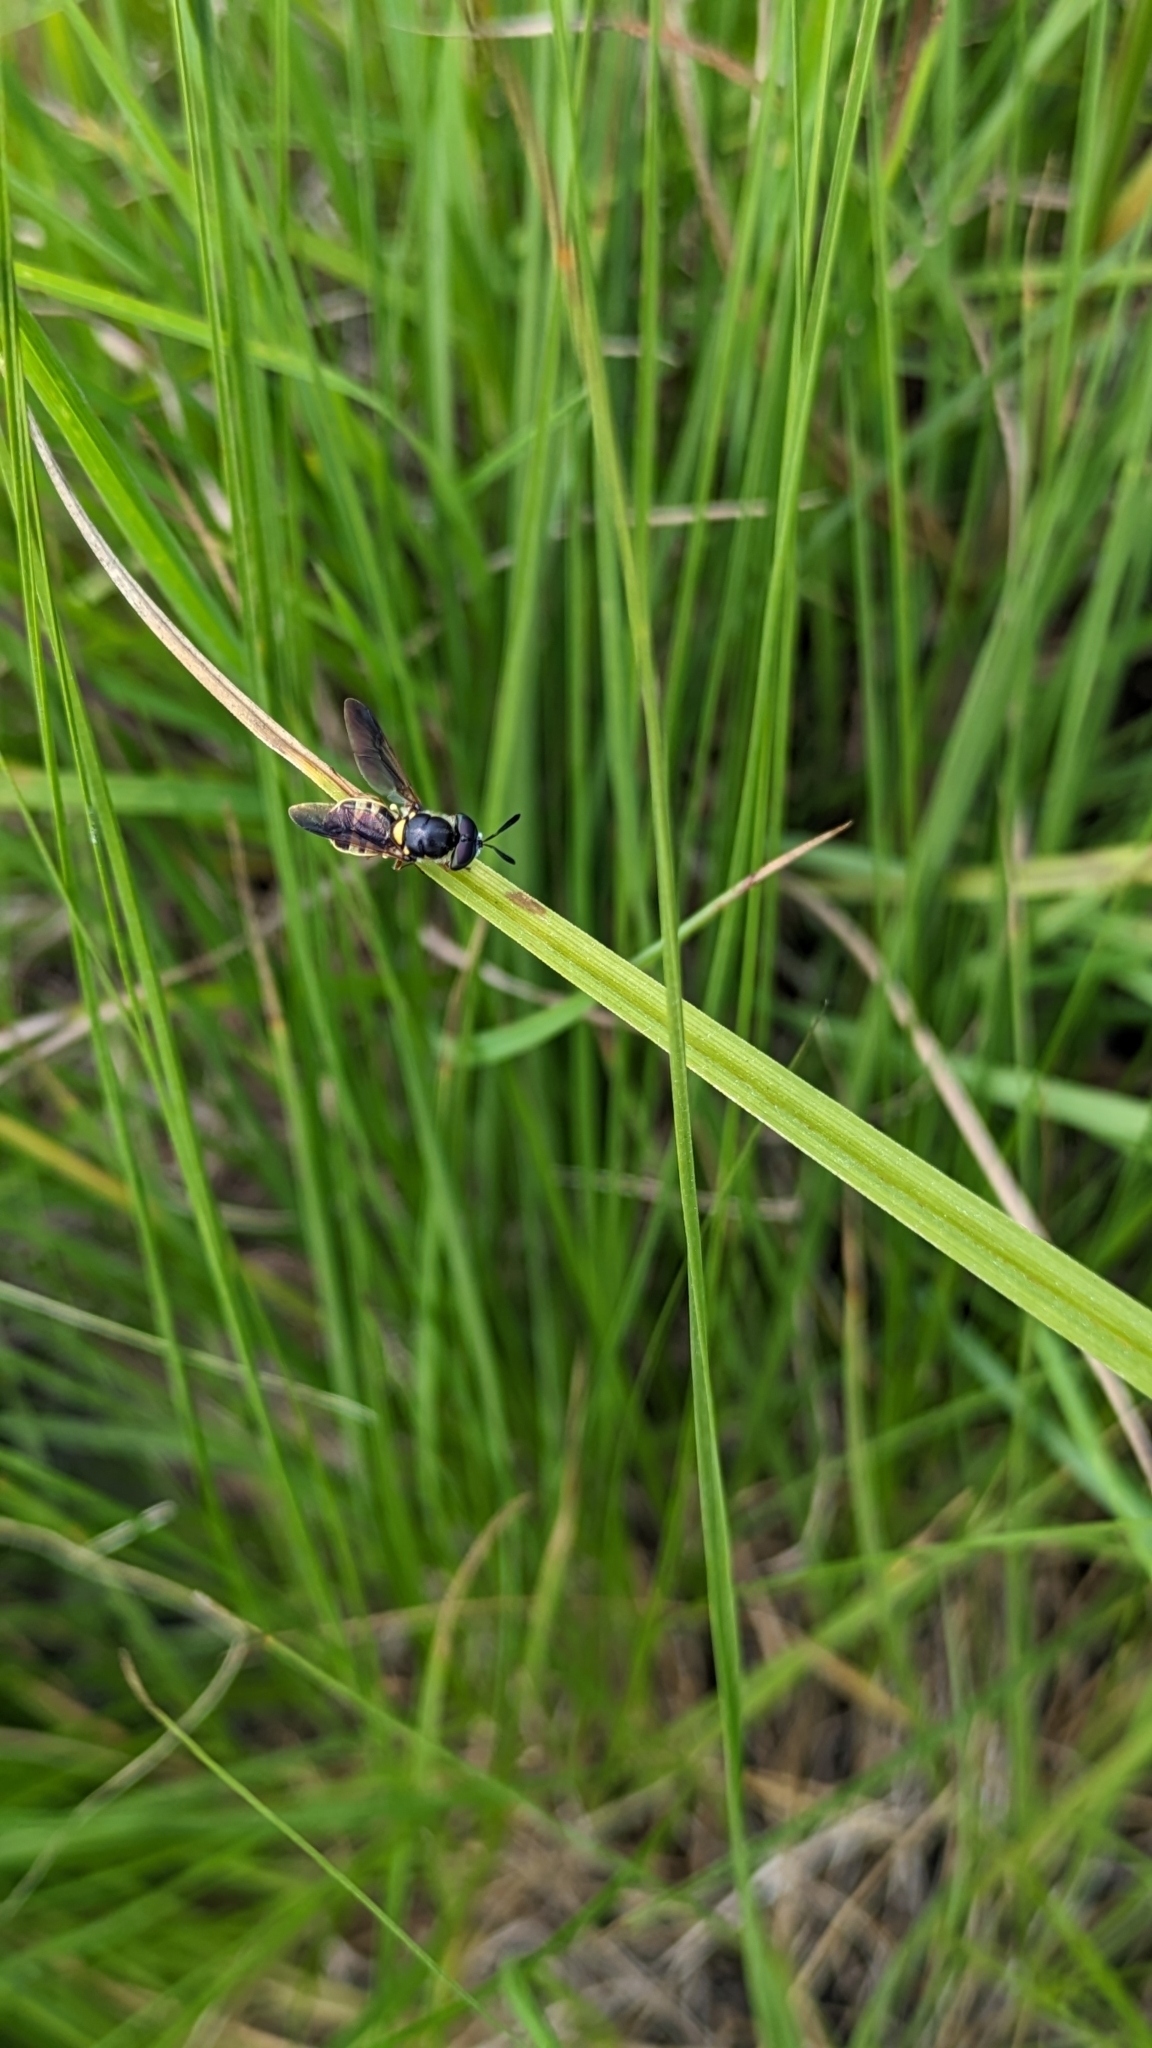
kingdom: Animalia
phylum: Arthropoda
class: Insecta
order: Diptera
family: Stratiomyidae
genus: Hoplitimyia
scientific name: Hoplitimyia constans
